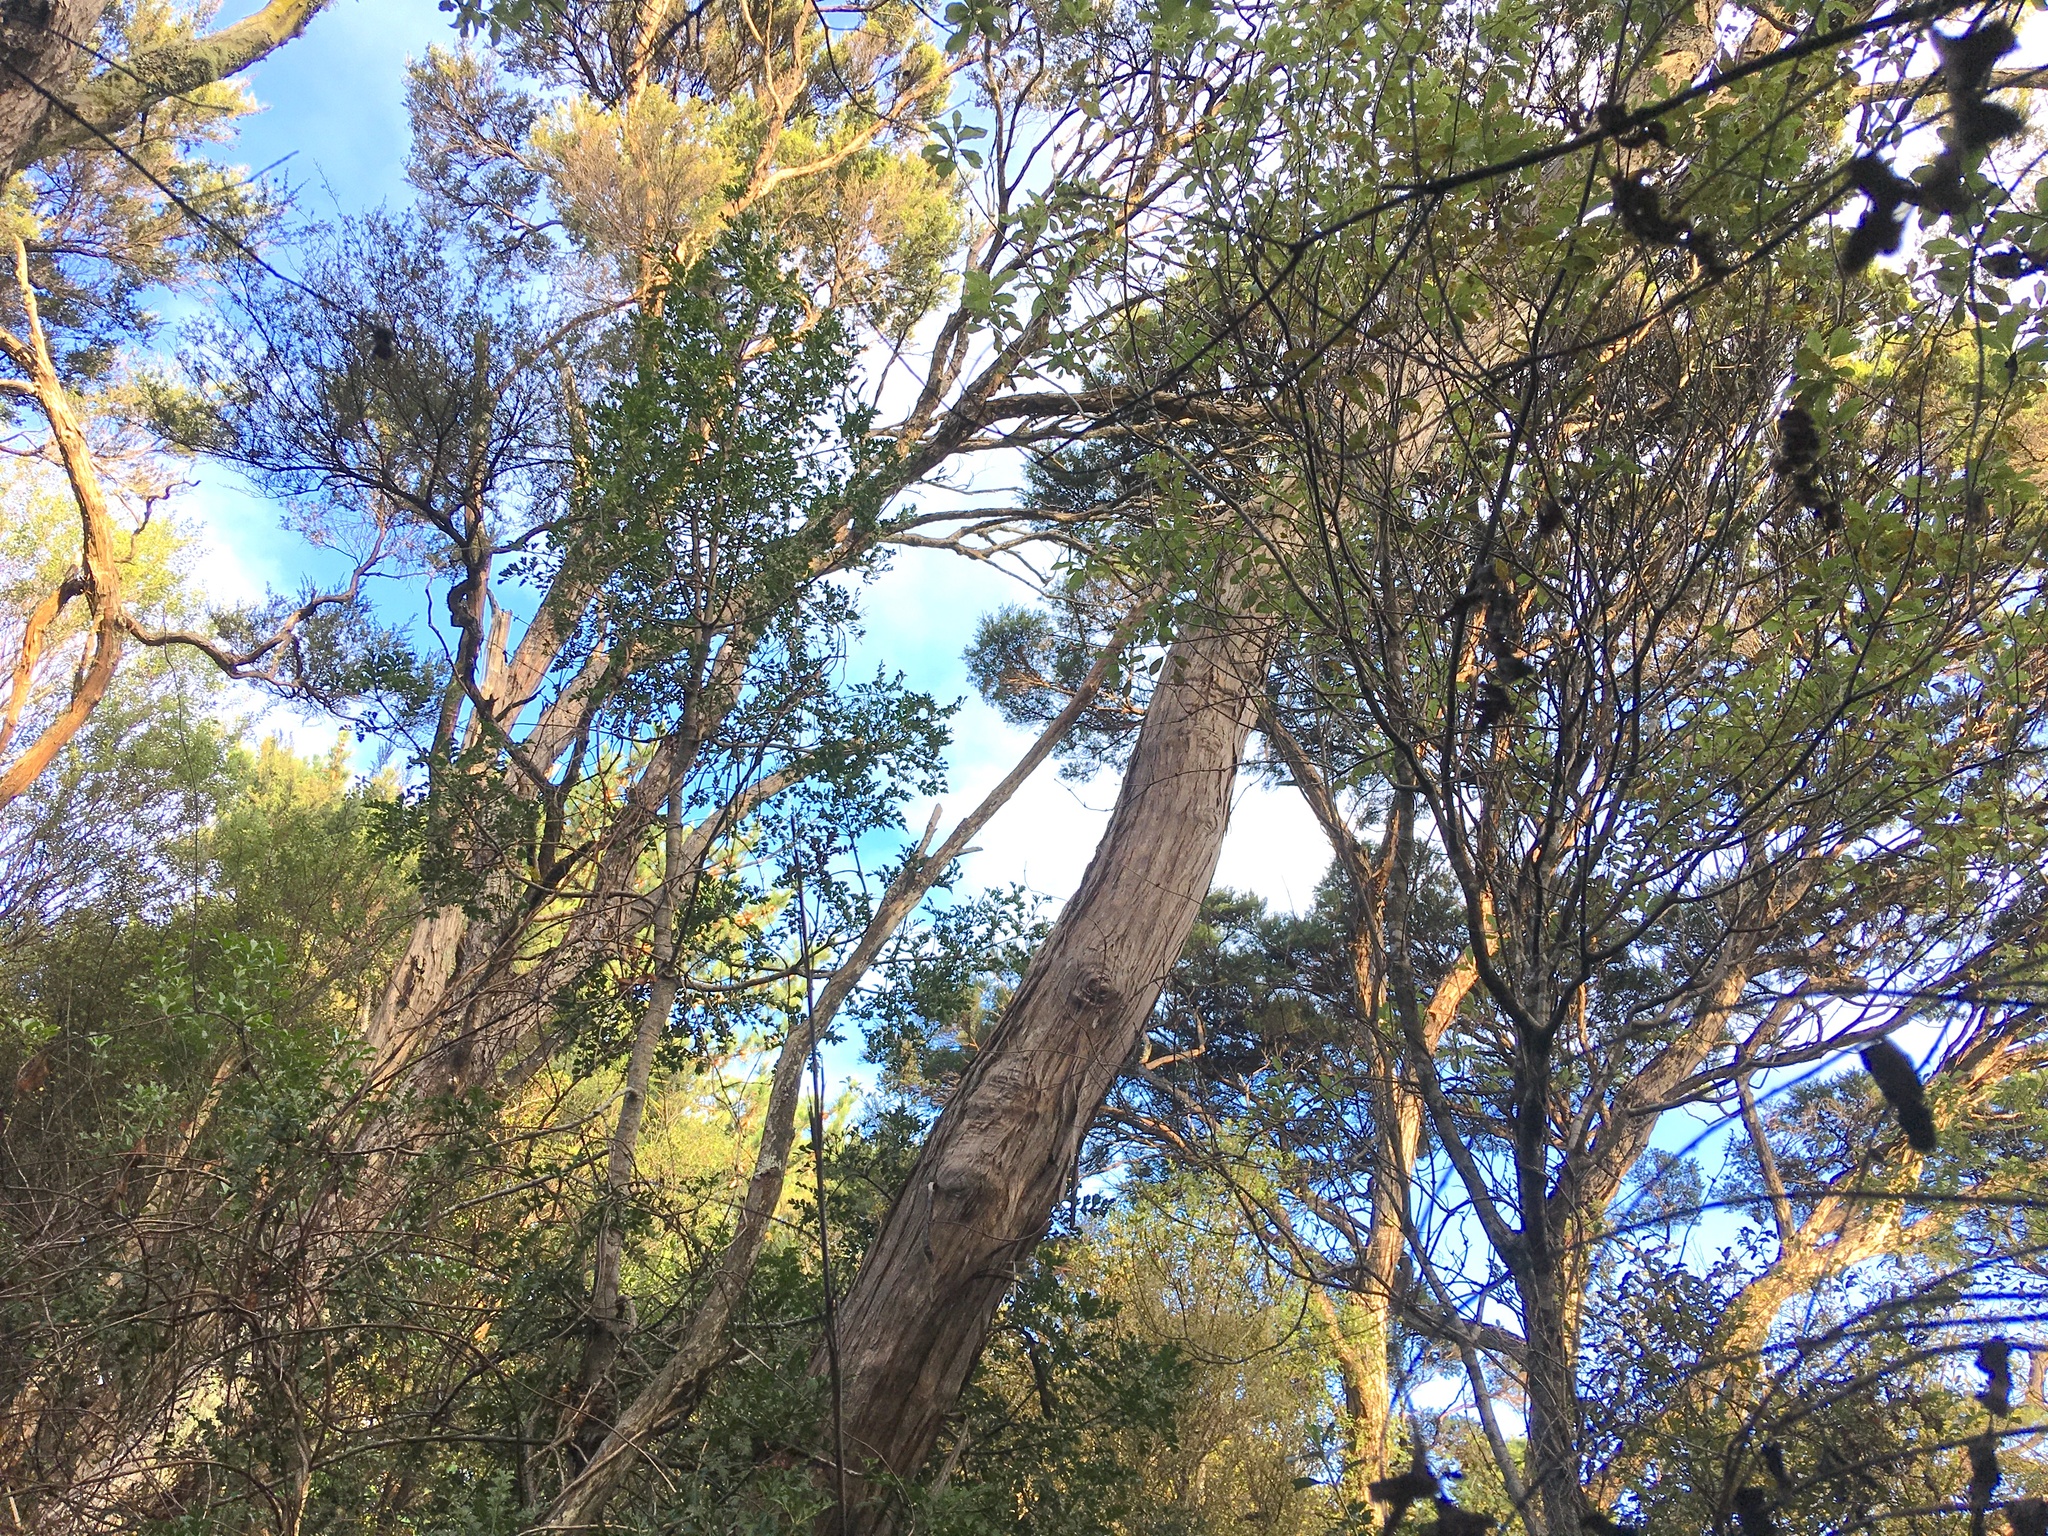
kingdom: Plantae
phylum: Tracheophyta
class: Pinopsida
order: Pinales
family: Phyllocladaceae
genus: Phyllocladus
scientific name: Phyllocladus trichomanoides
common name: Celery pine
